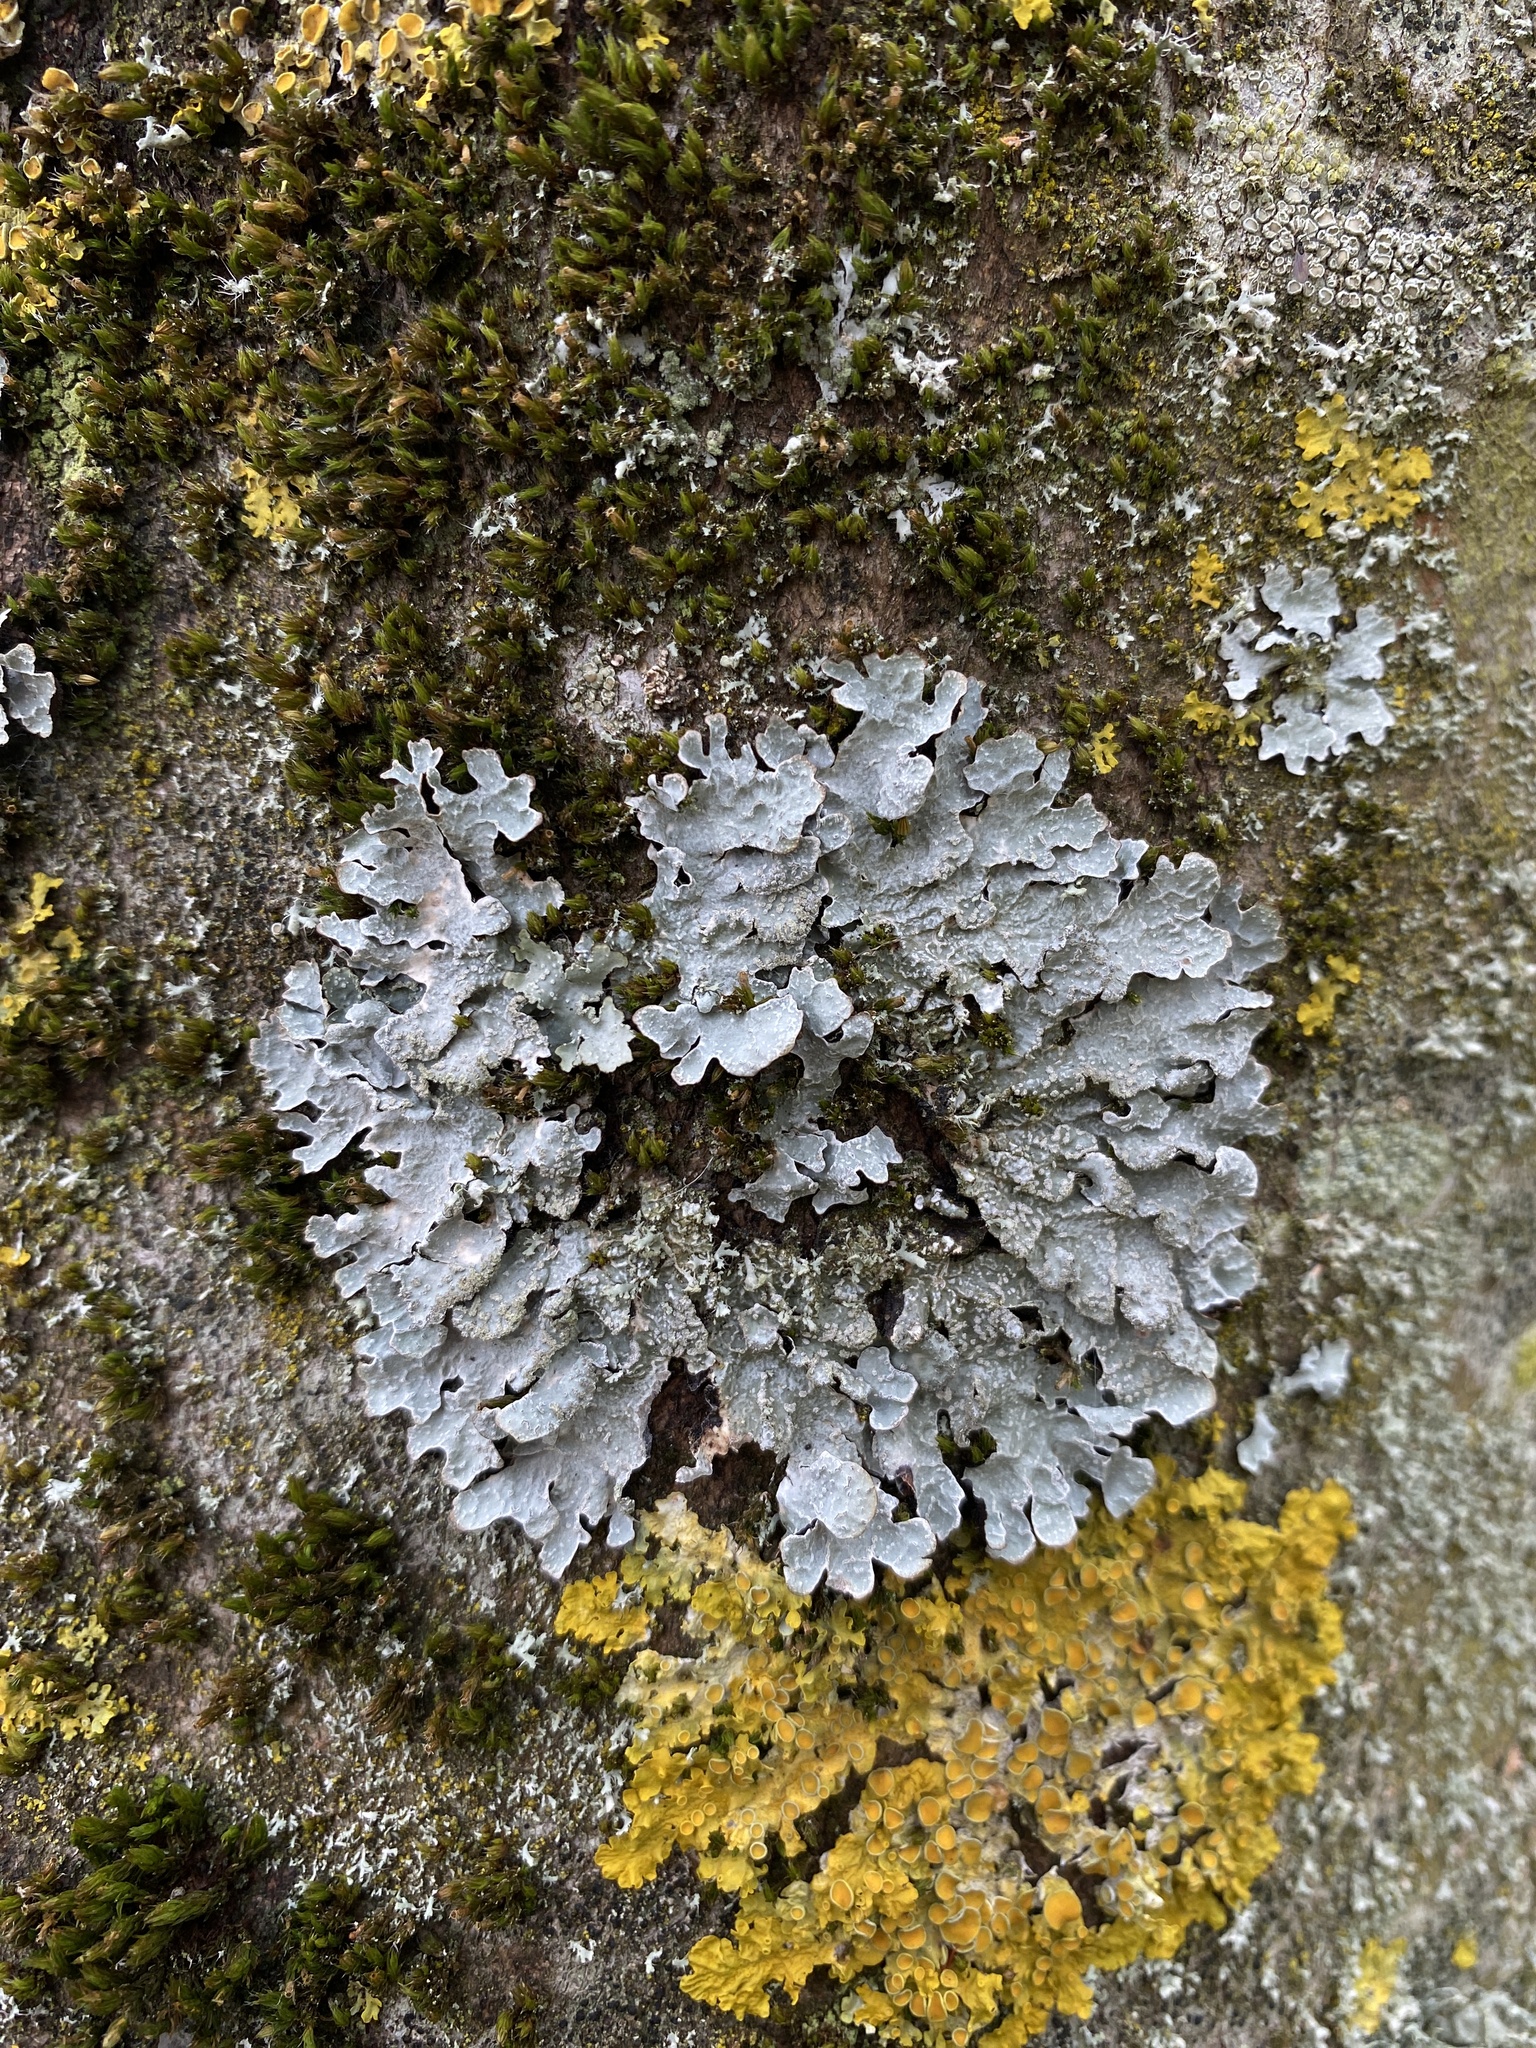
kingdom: Fungi
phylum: Ascomycota
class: Lecanoromycetes
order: Lecanorales
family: Parmeliaceae
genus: Parmelia
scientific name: Parmelia sulcata
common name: Netted shield lichen
